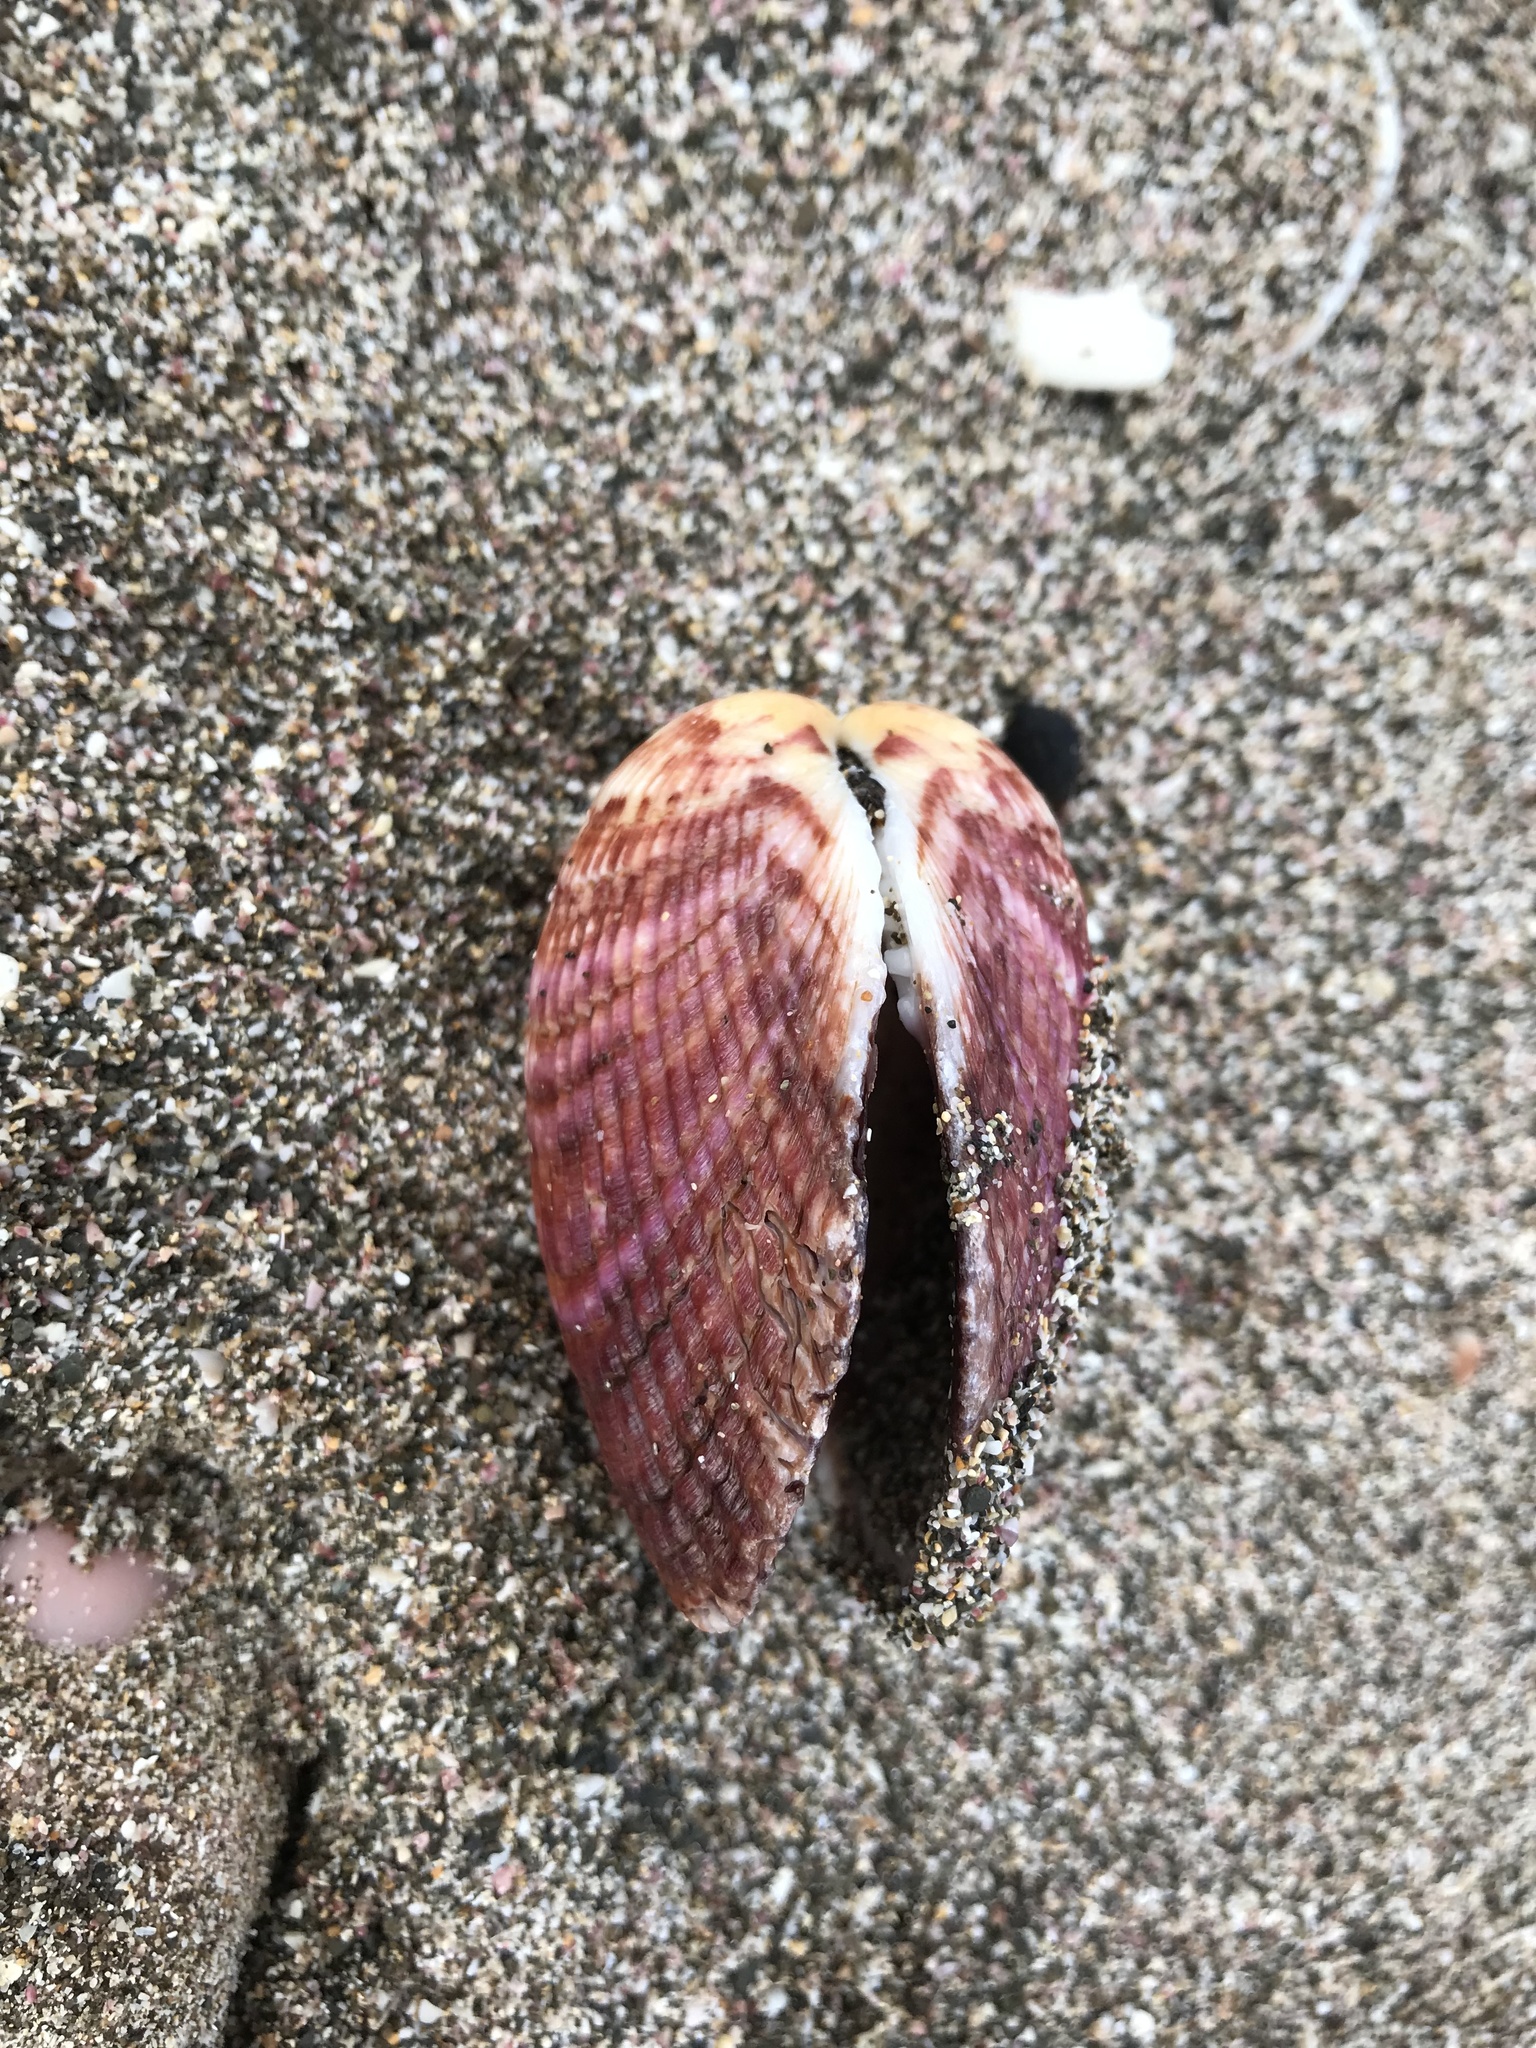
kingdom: Animalia
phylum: Mollusca
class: Bivalvia
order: Arcida
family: Glycymerididae
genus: Tucetona
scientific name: Tucetona laticostata
